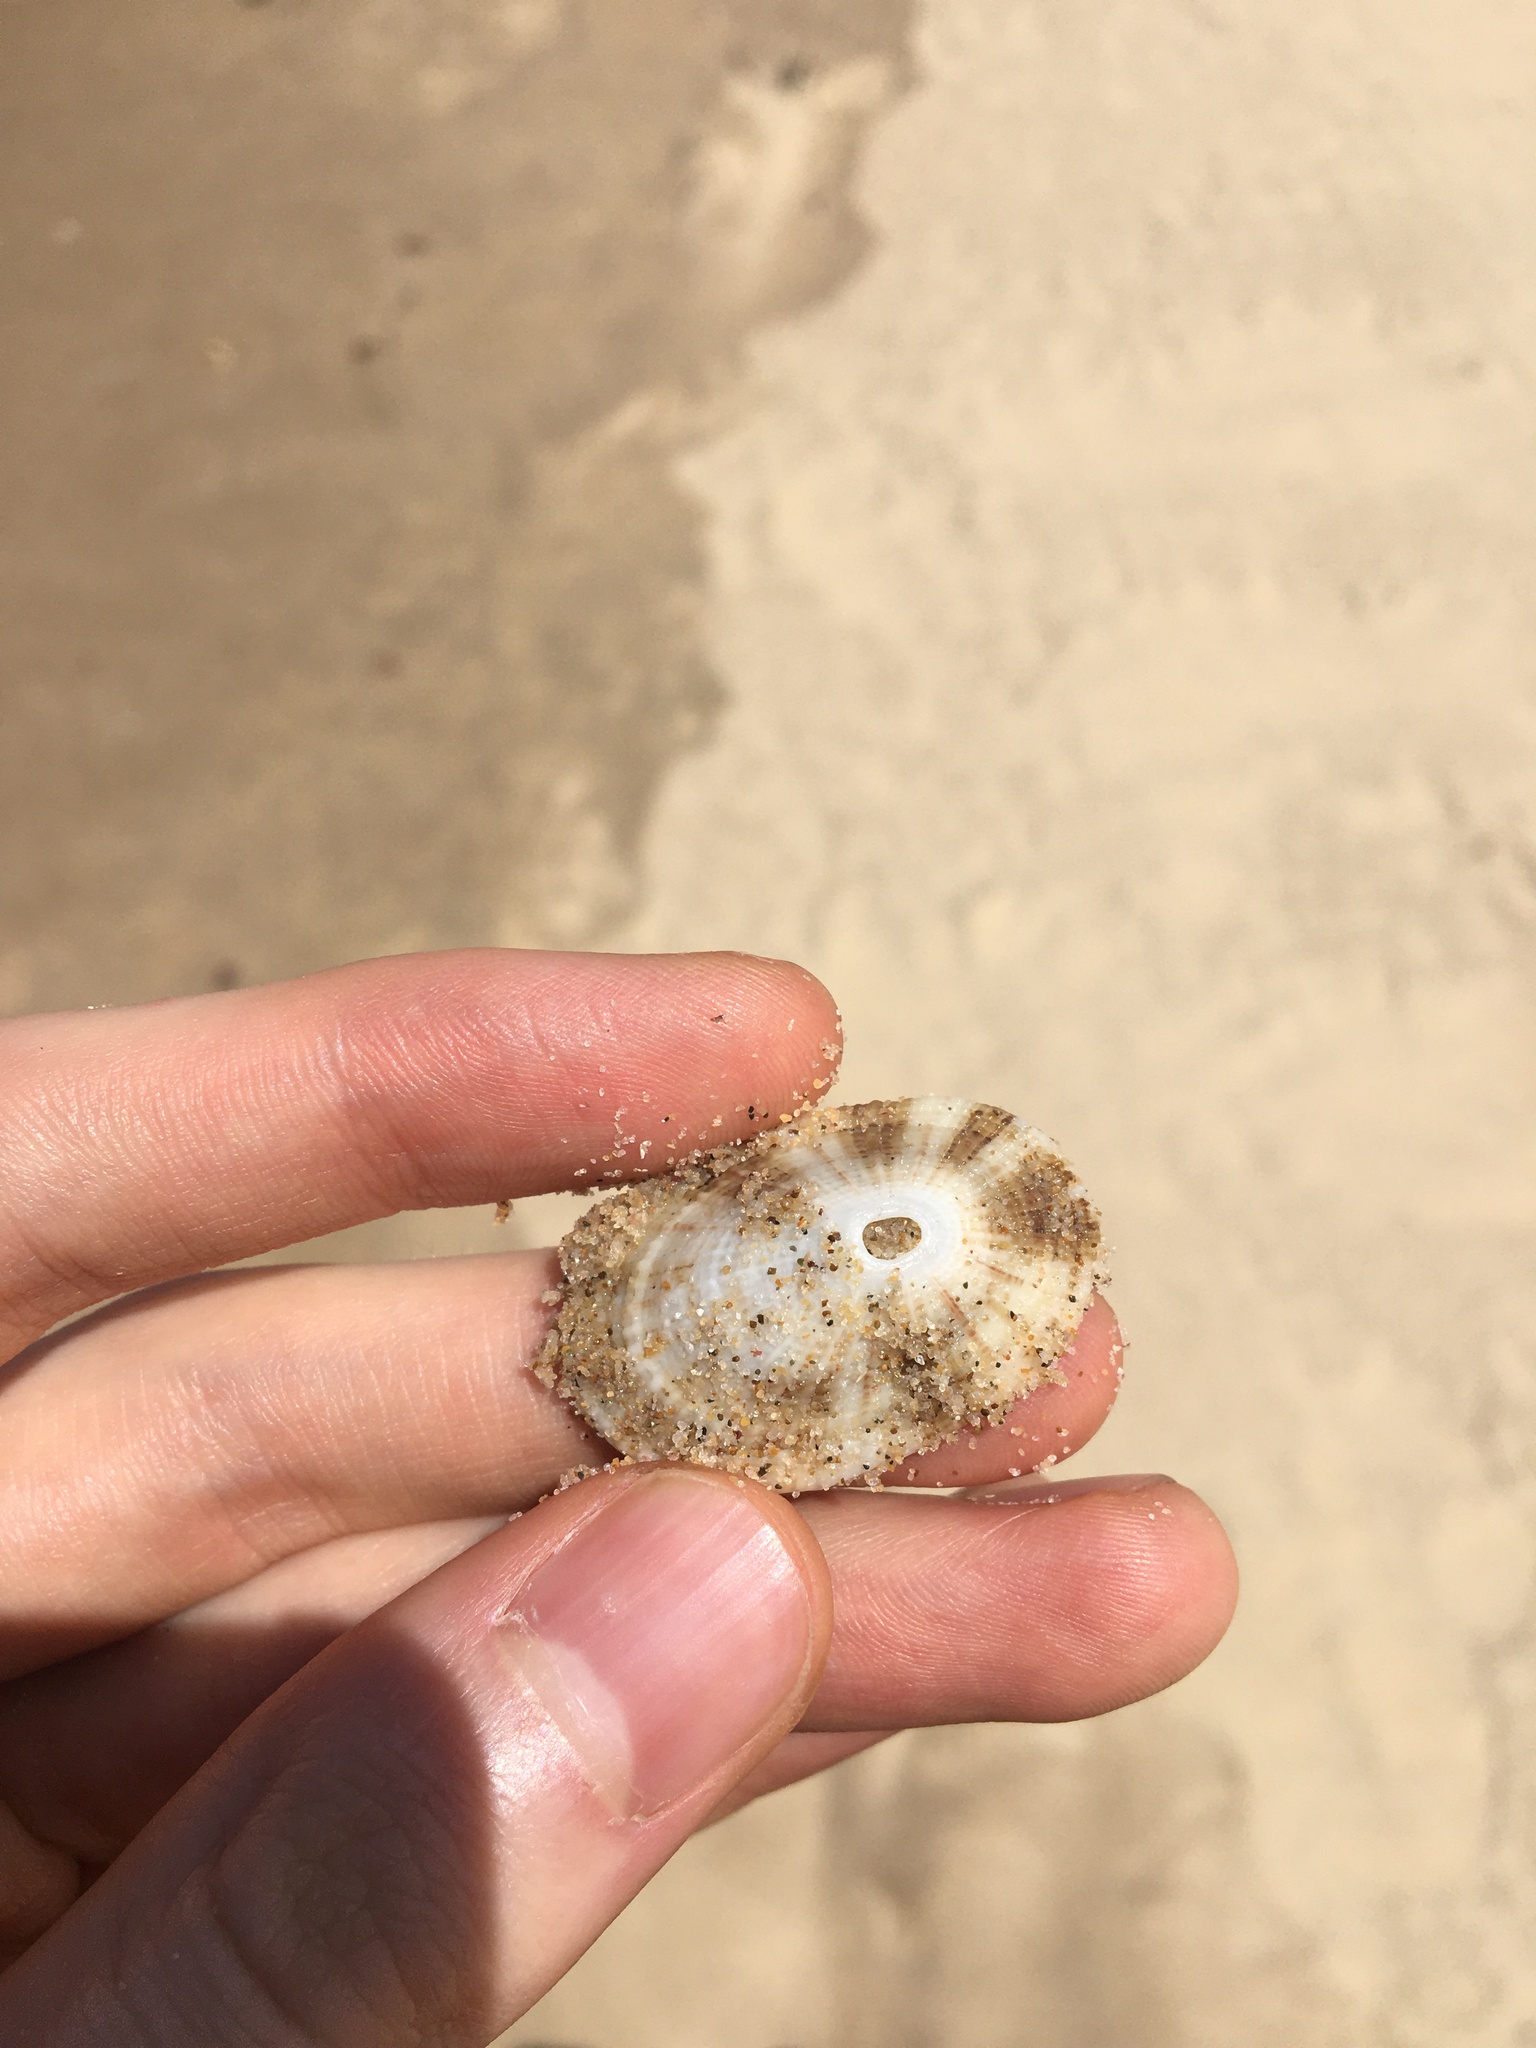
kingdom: Animalia
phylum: Mollusca
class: Gastropoda
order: Lepetellida
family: Fissurellidae
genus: Diodora
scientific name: Diodora lineata
